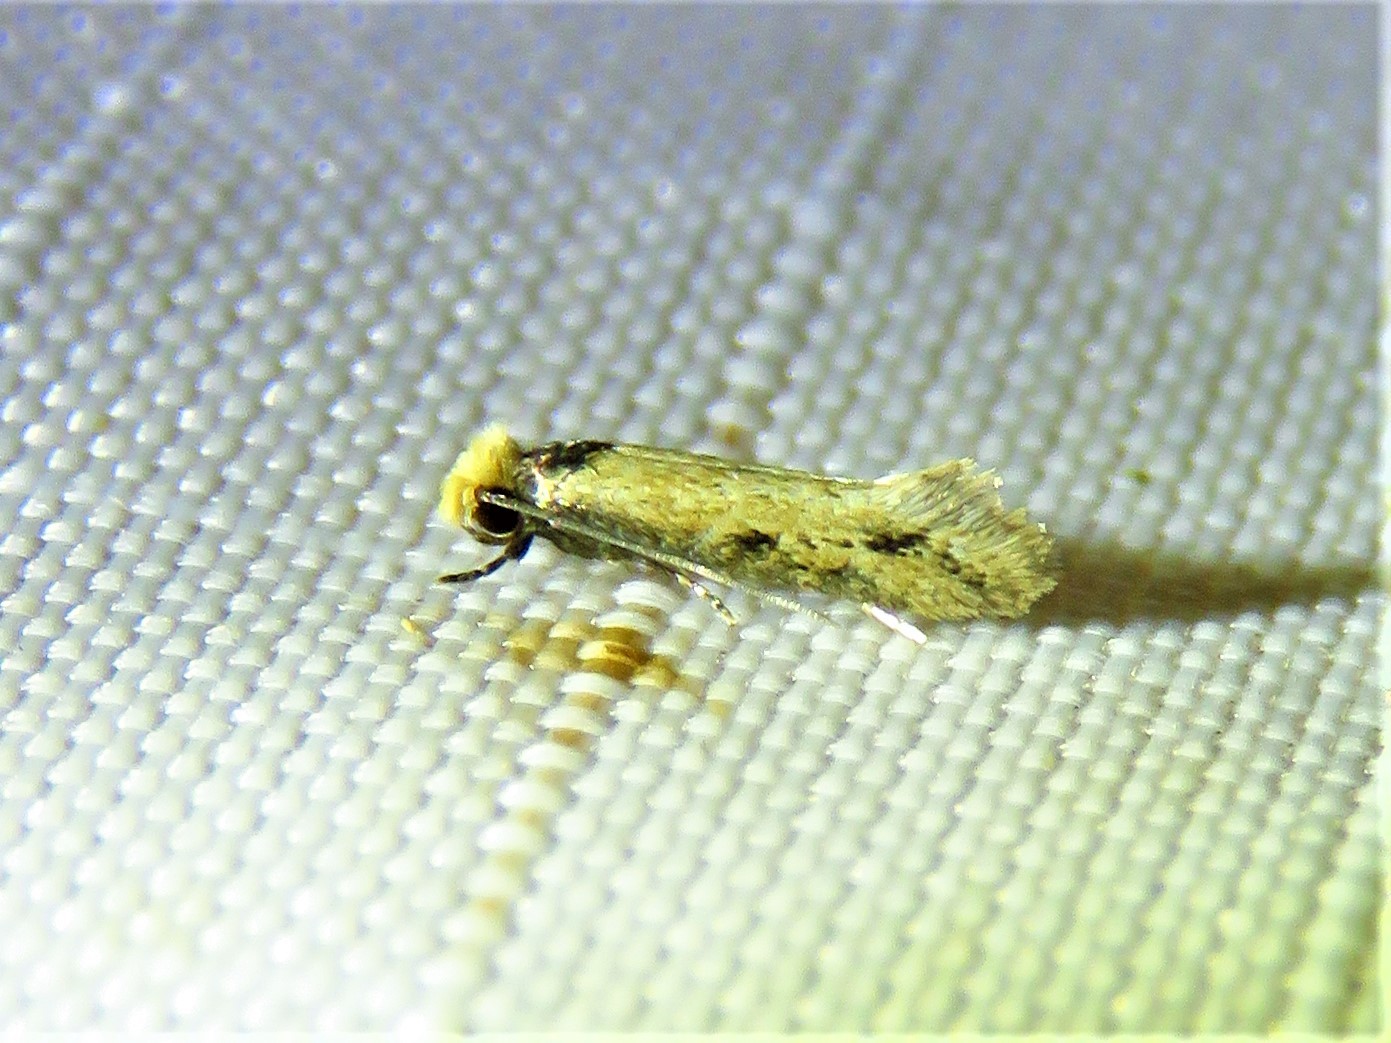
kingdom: Animalia
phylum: Arthropoda
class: Insecta
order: Lepidoptera
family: Meessiidae
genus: Homostinea
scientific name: Homostinea curviliniella
